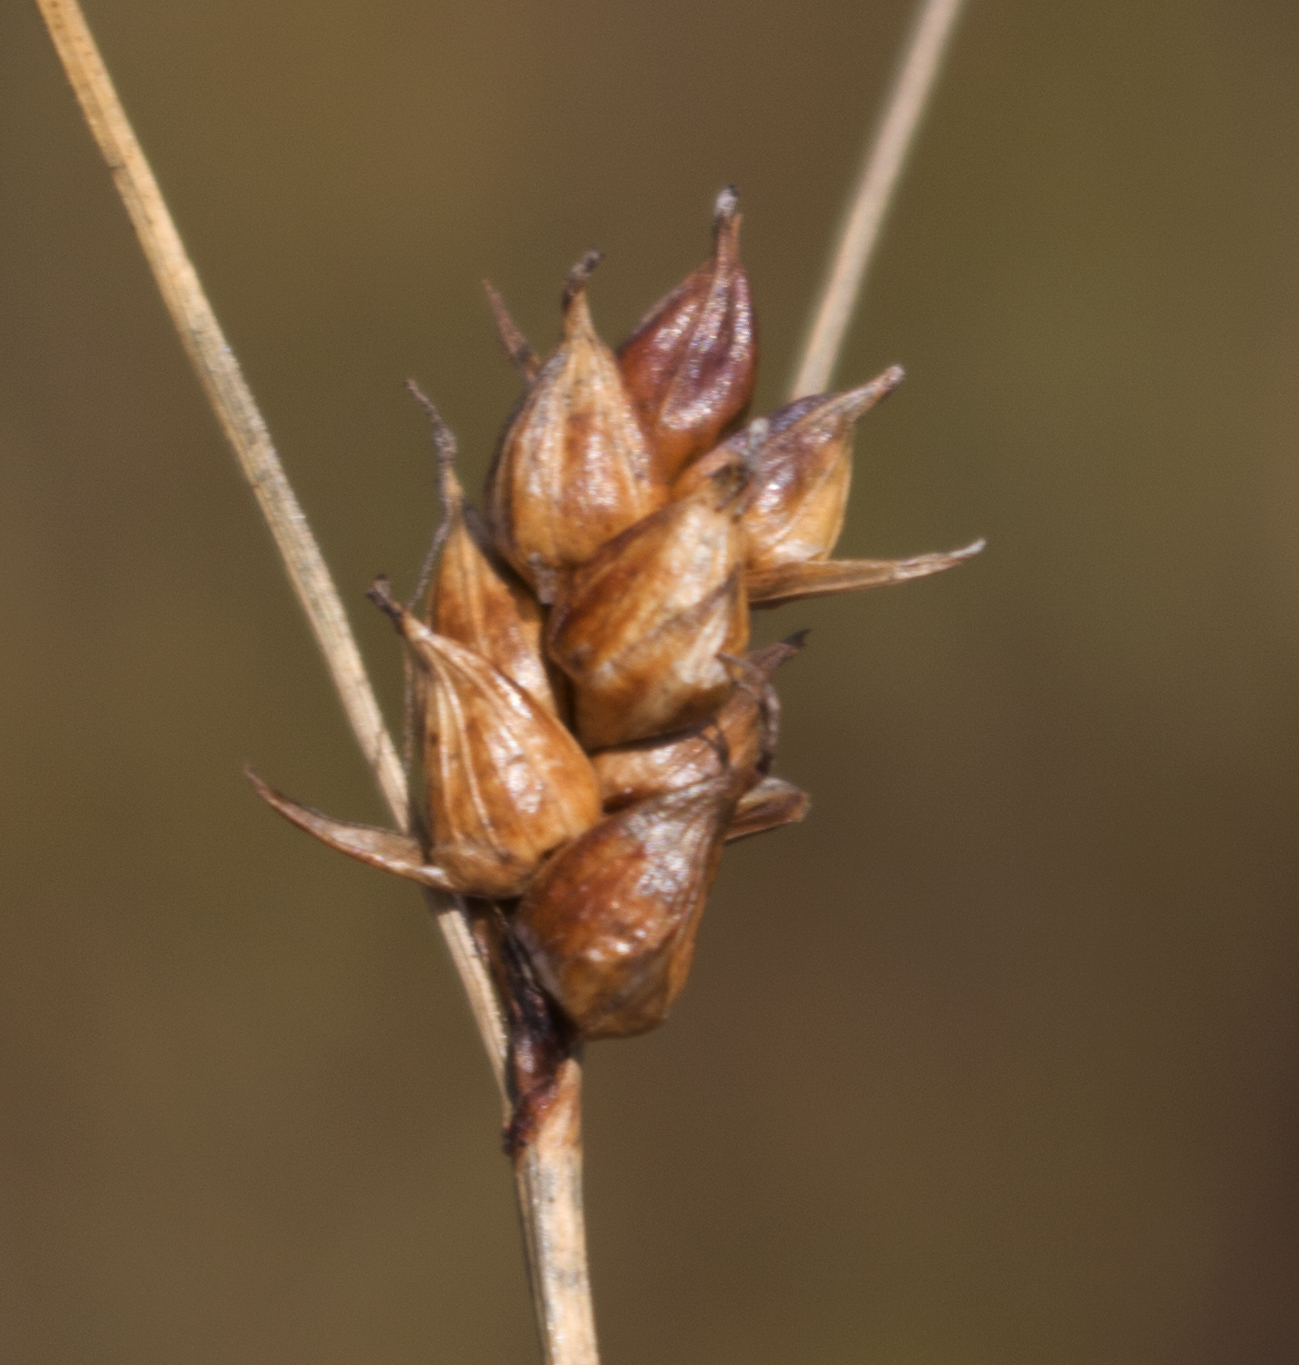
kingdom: Plantae
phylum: Tracheophyta
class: Liliopsida
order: Poales
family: Cyperaceae
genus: Carex
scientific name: Carex oligosperma
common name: Few-seed sedge
